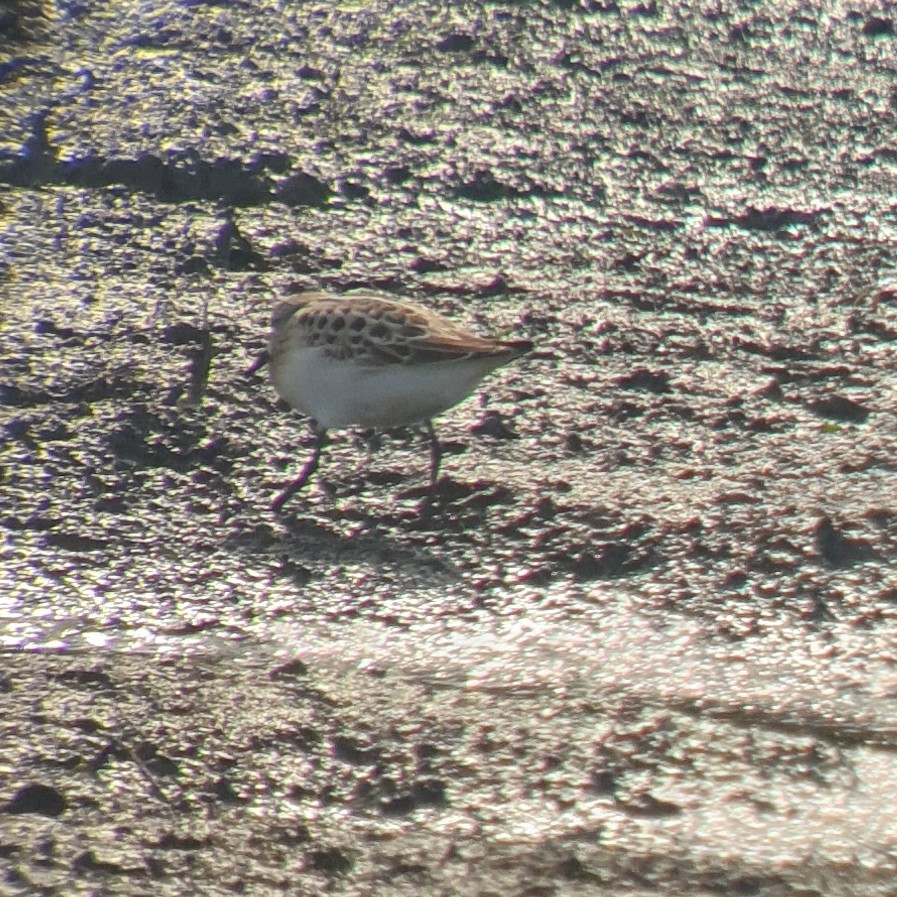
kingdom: Animalia
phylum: Chordata
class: Aves
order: Charadriiformes
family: Scolopacidae
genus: Calidris
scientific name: Calidris minuta
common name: Little stint
